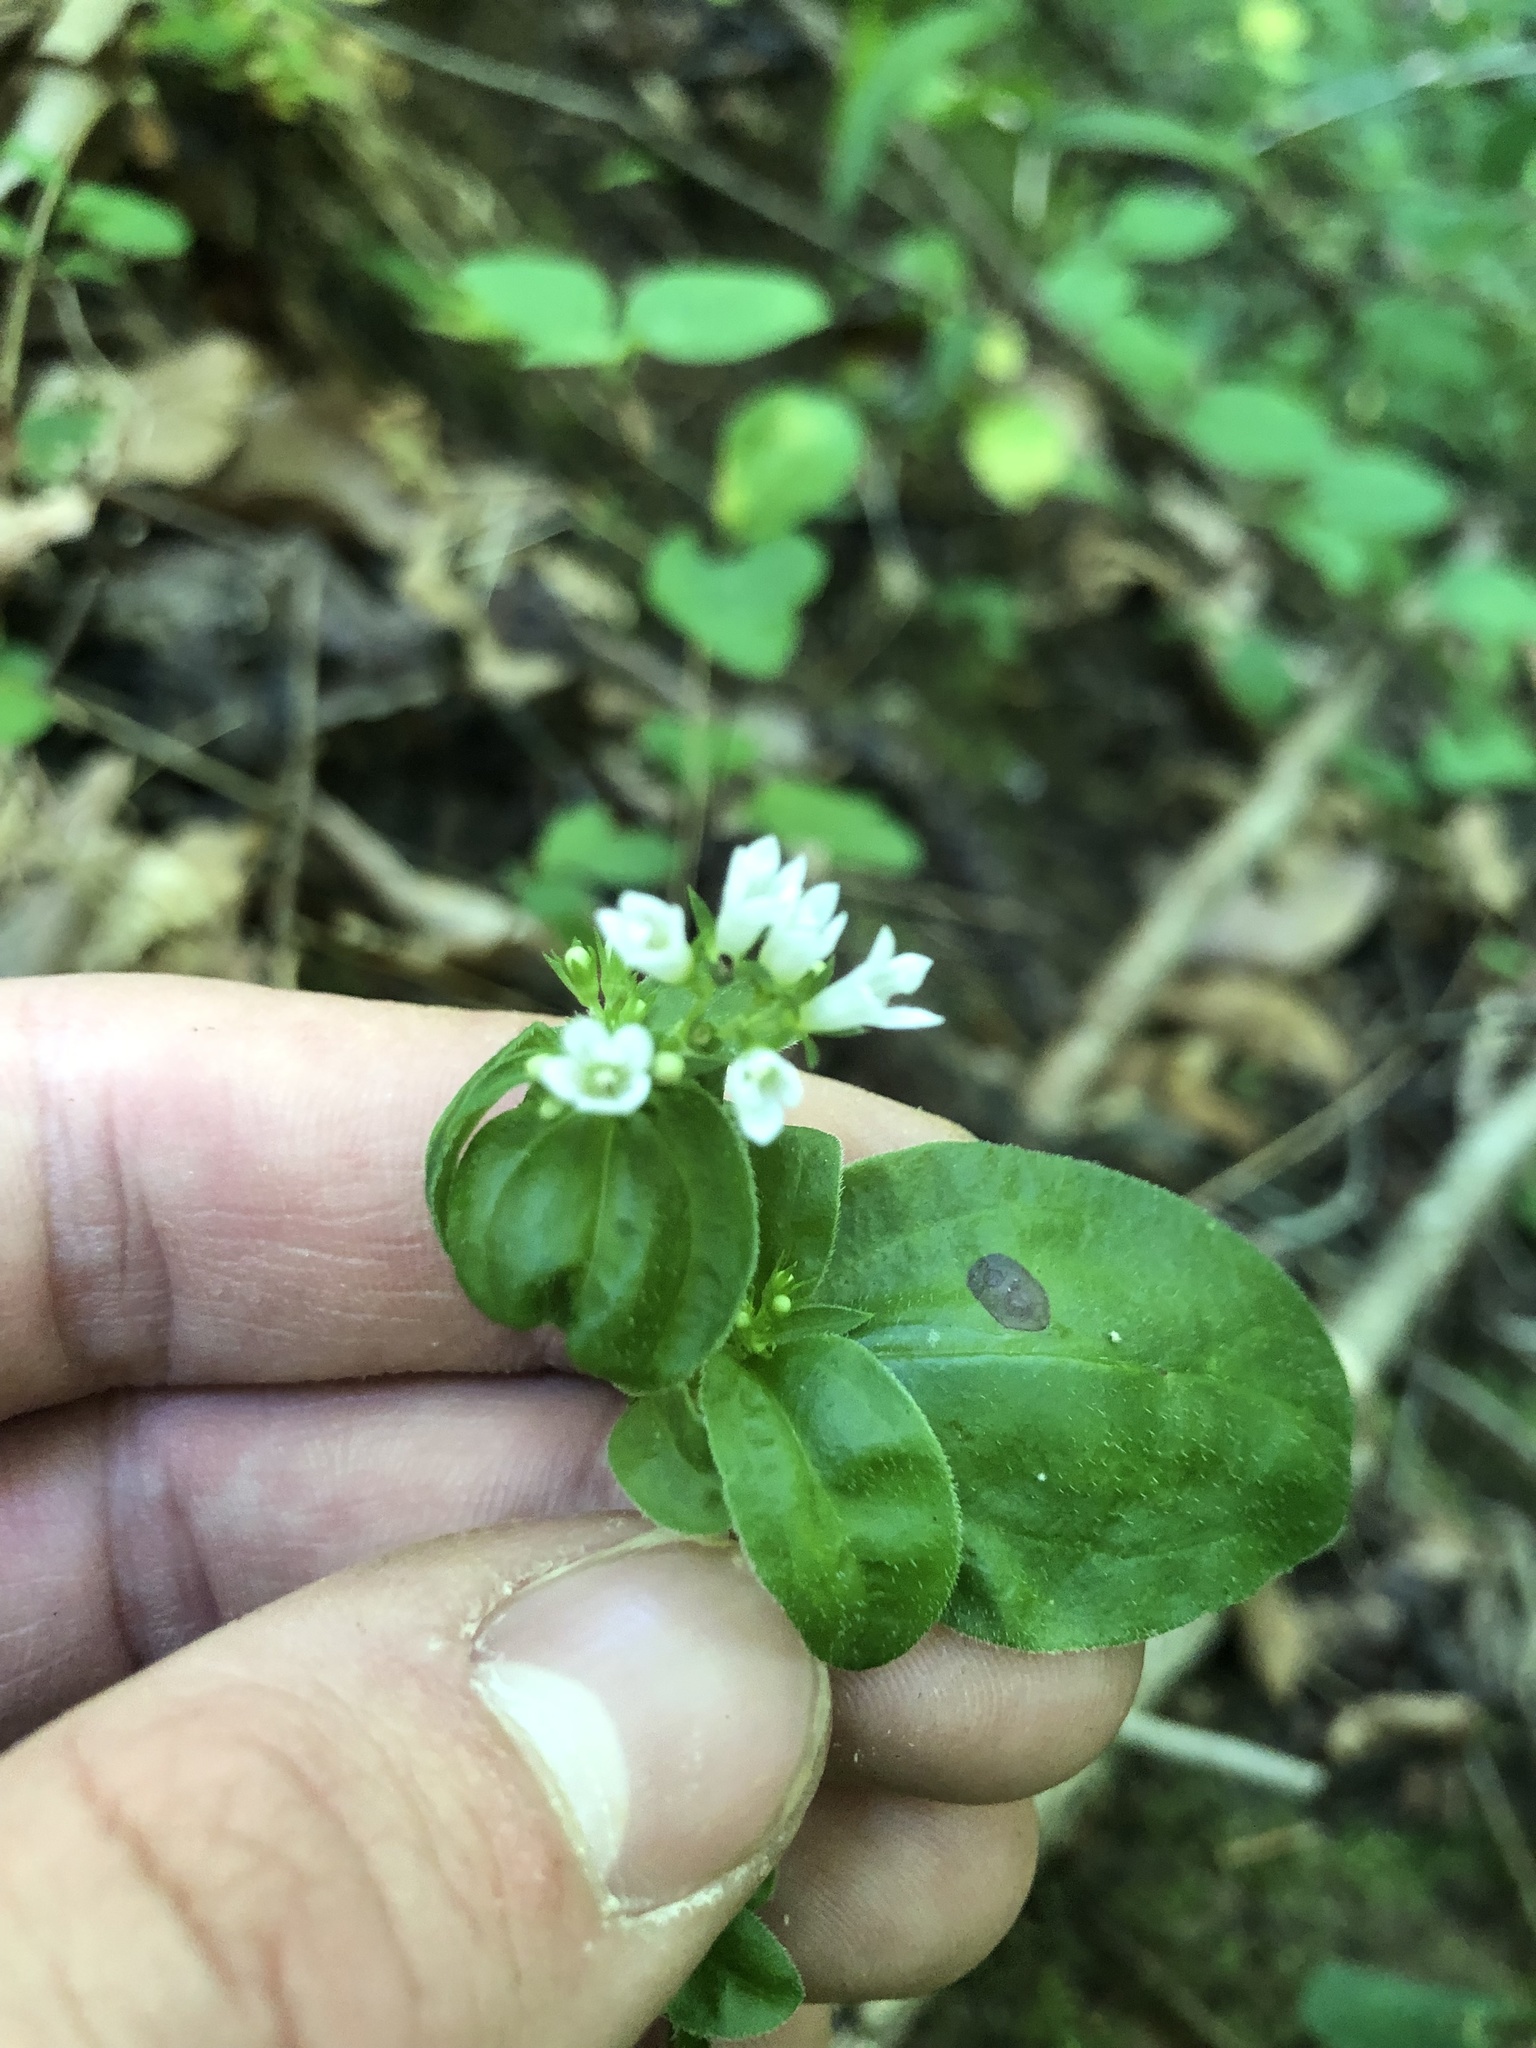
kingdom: Plantae
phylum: Tracheophyta
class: Magnoliopsida
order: Gentianales
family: Rubiaceae
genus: Houstonia
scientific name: Houstonia purpurea
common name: Summer bluet
